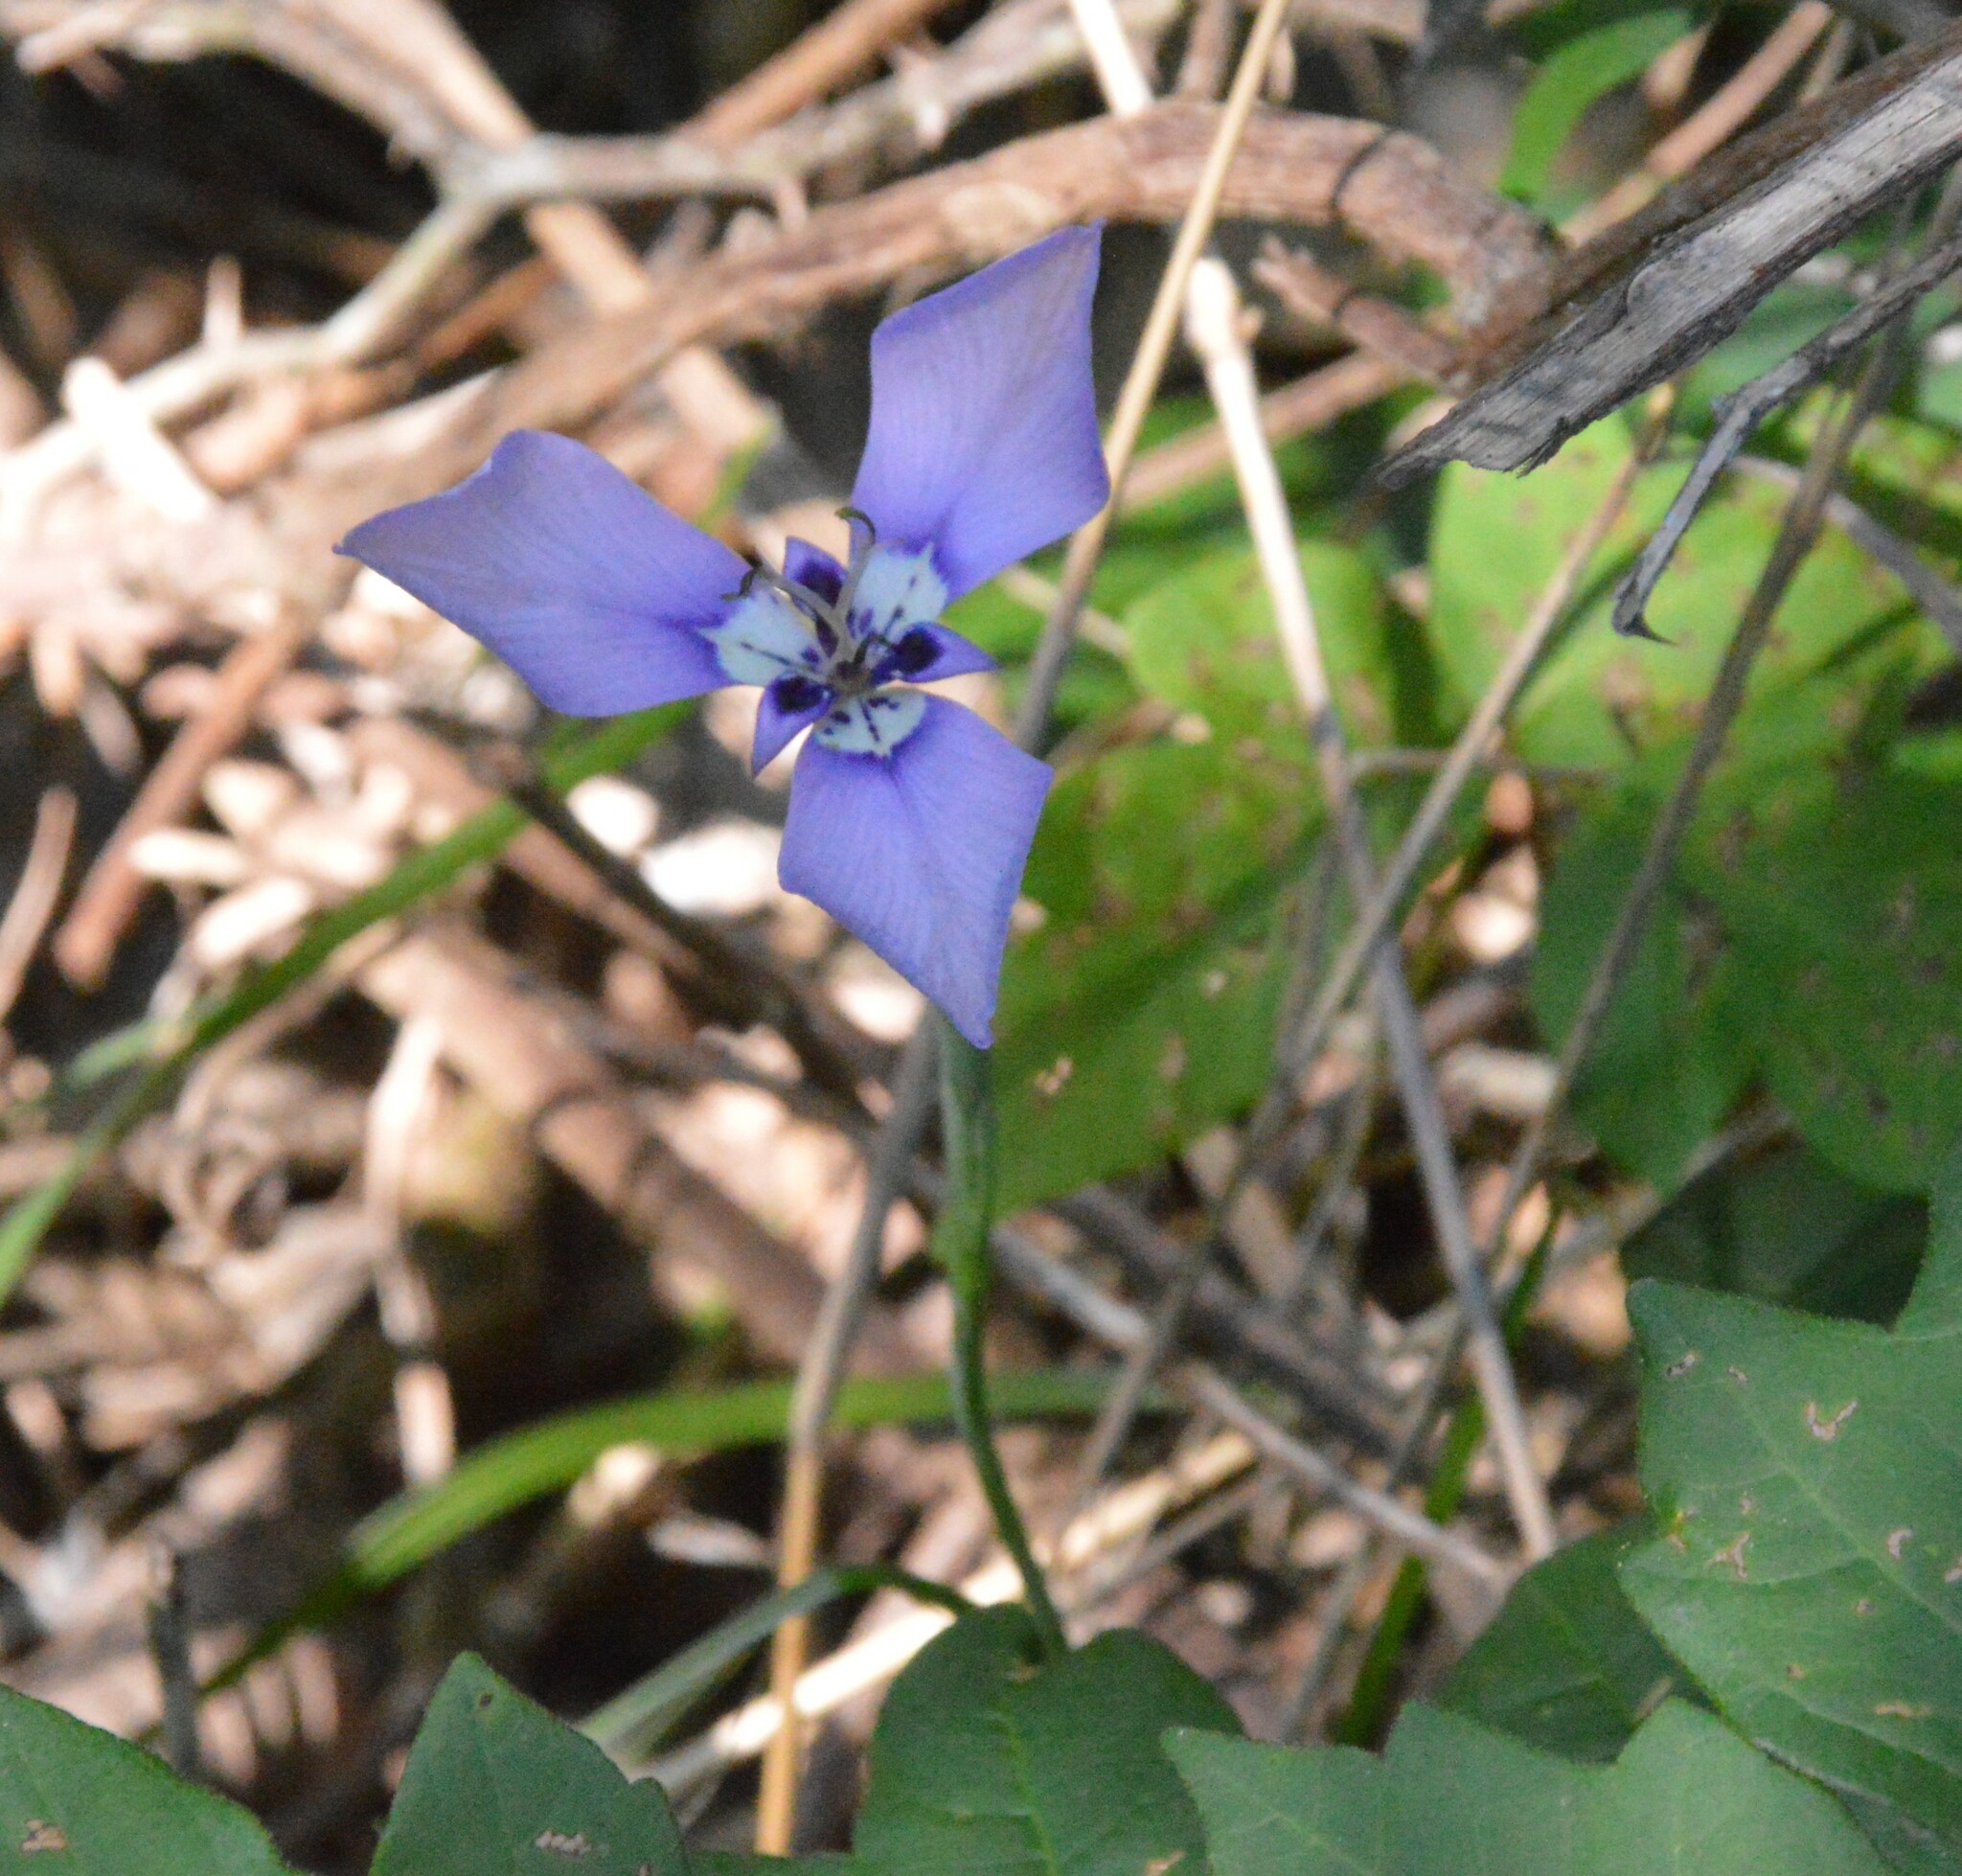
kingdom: Plantae
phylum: Tracheophyta
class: Liliopsida
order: Asparagales
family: Iridaceae
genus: Herbertia
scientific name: Herbertia lahue
